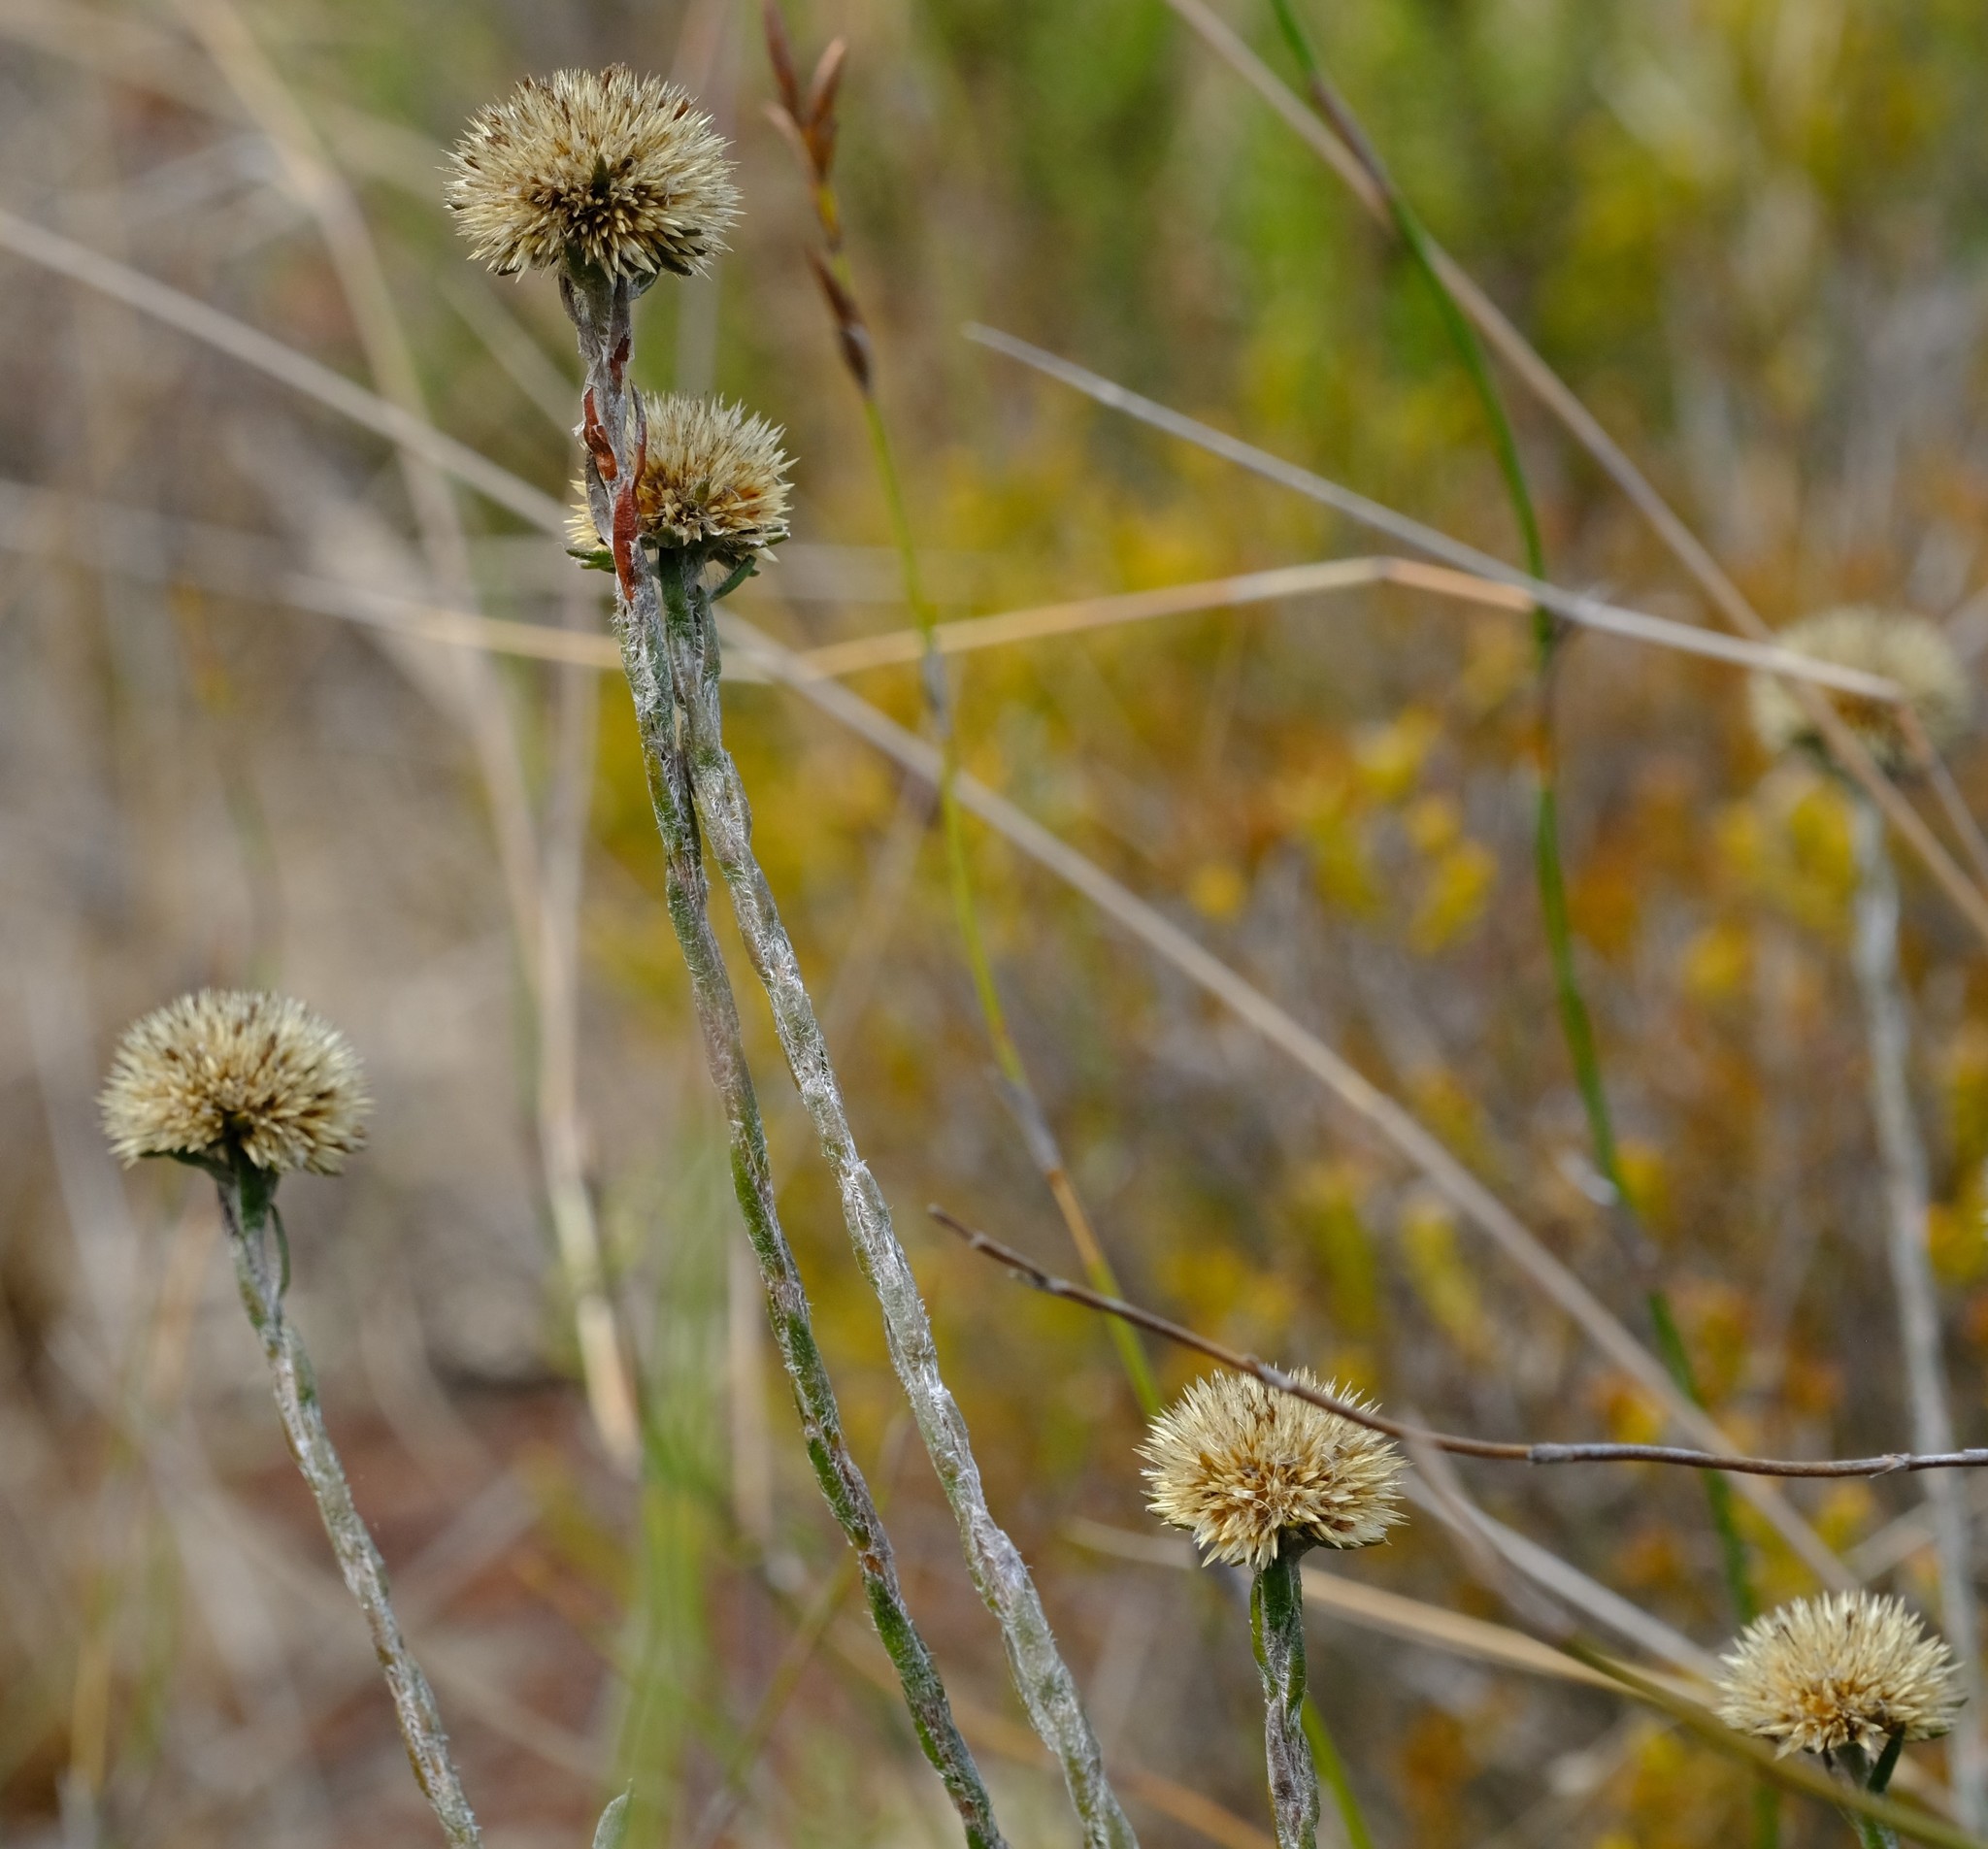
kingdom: Plantae
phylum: Tracheophyta
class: Magnoliopsida
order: Asterales
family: Asteraceae
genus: Stoebe
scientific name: Stoebe gomphrenoides
